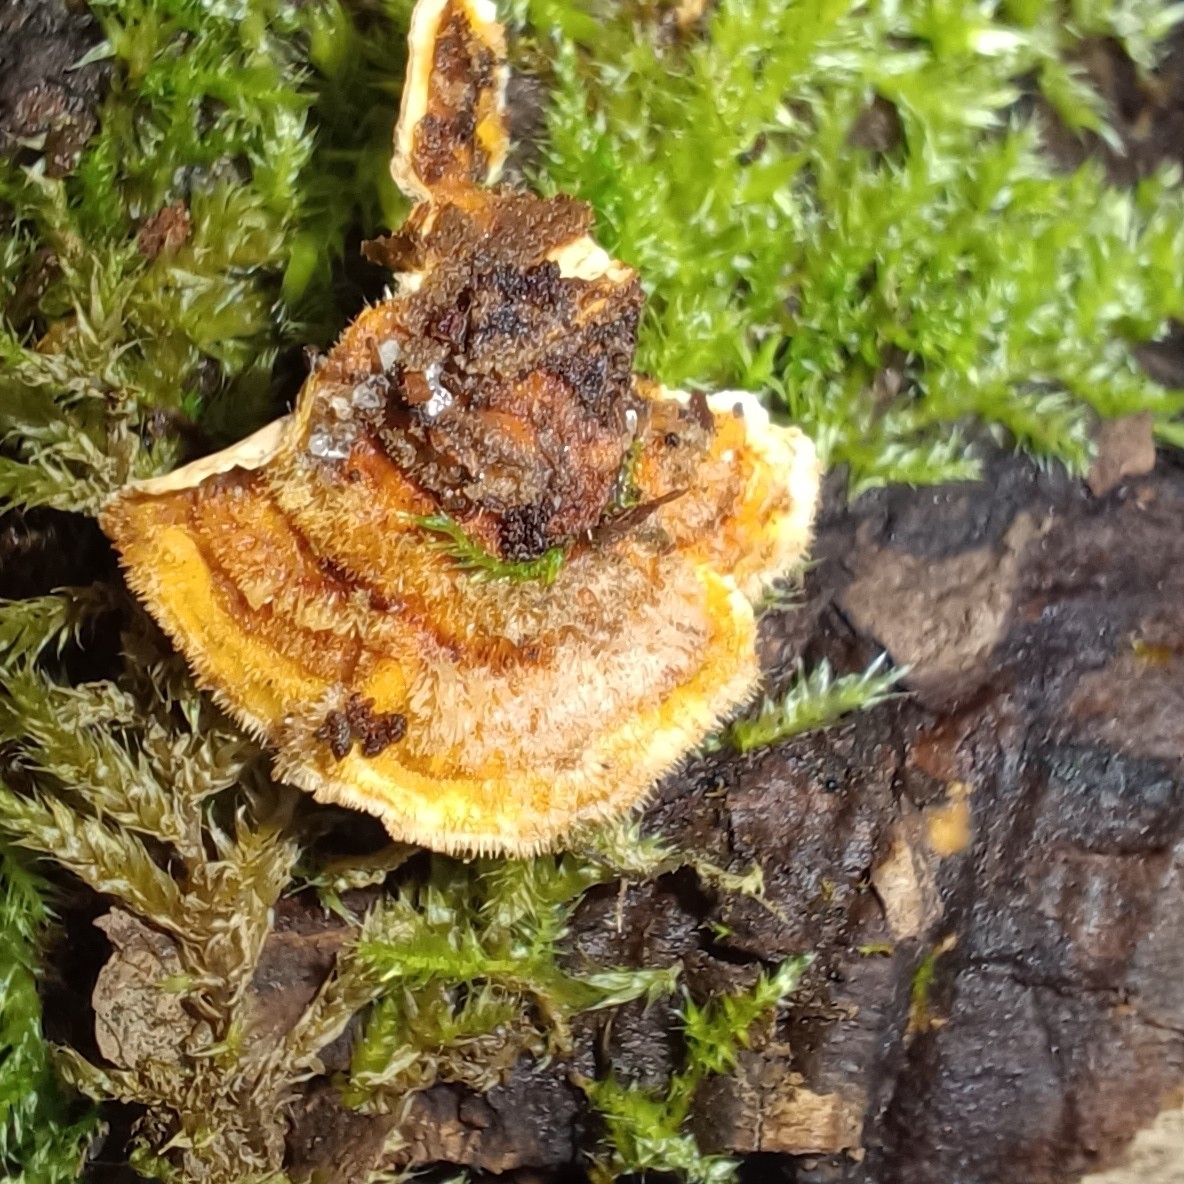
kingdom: Fungi
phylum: Basidiomycota
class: Agaricomycetes
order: Russulales
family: Stereaceae
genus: Stereum
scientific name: Stereum hirsutum
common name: Hairy curtain crust
